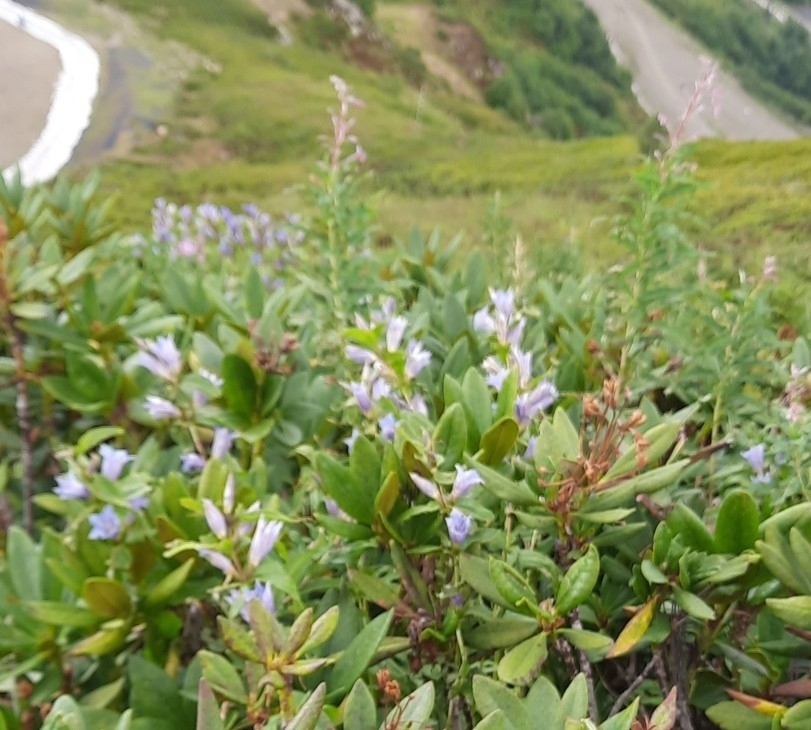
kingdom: Plantae
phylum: Tracheophyta
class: Magnoliopsida
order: Asterales
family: Campanulaceae
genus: Campanula
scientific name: Campanula latifolia
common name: Giant bellflower
